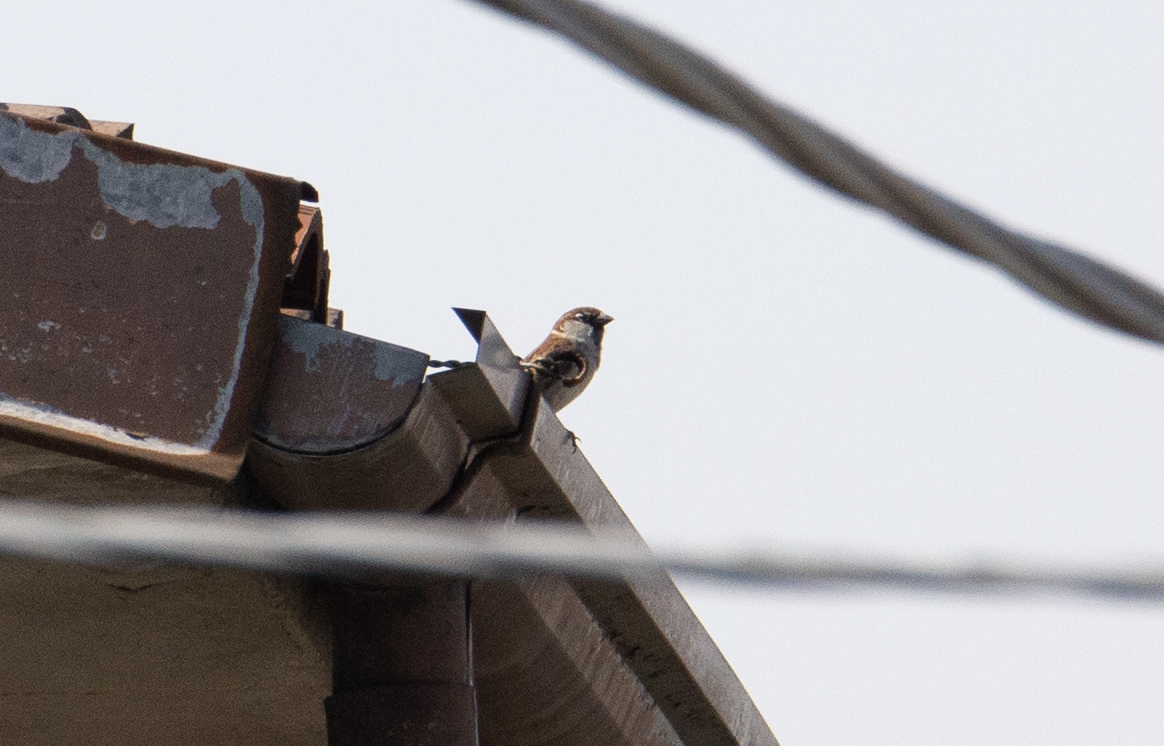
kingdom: Animalia
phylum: Chordata
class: Aves
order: Passeriformes
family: Passeridae
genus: Passer
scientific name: Passer italiae
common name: Italian sparrow
